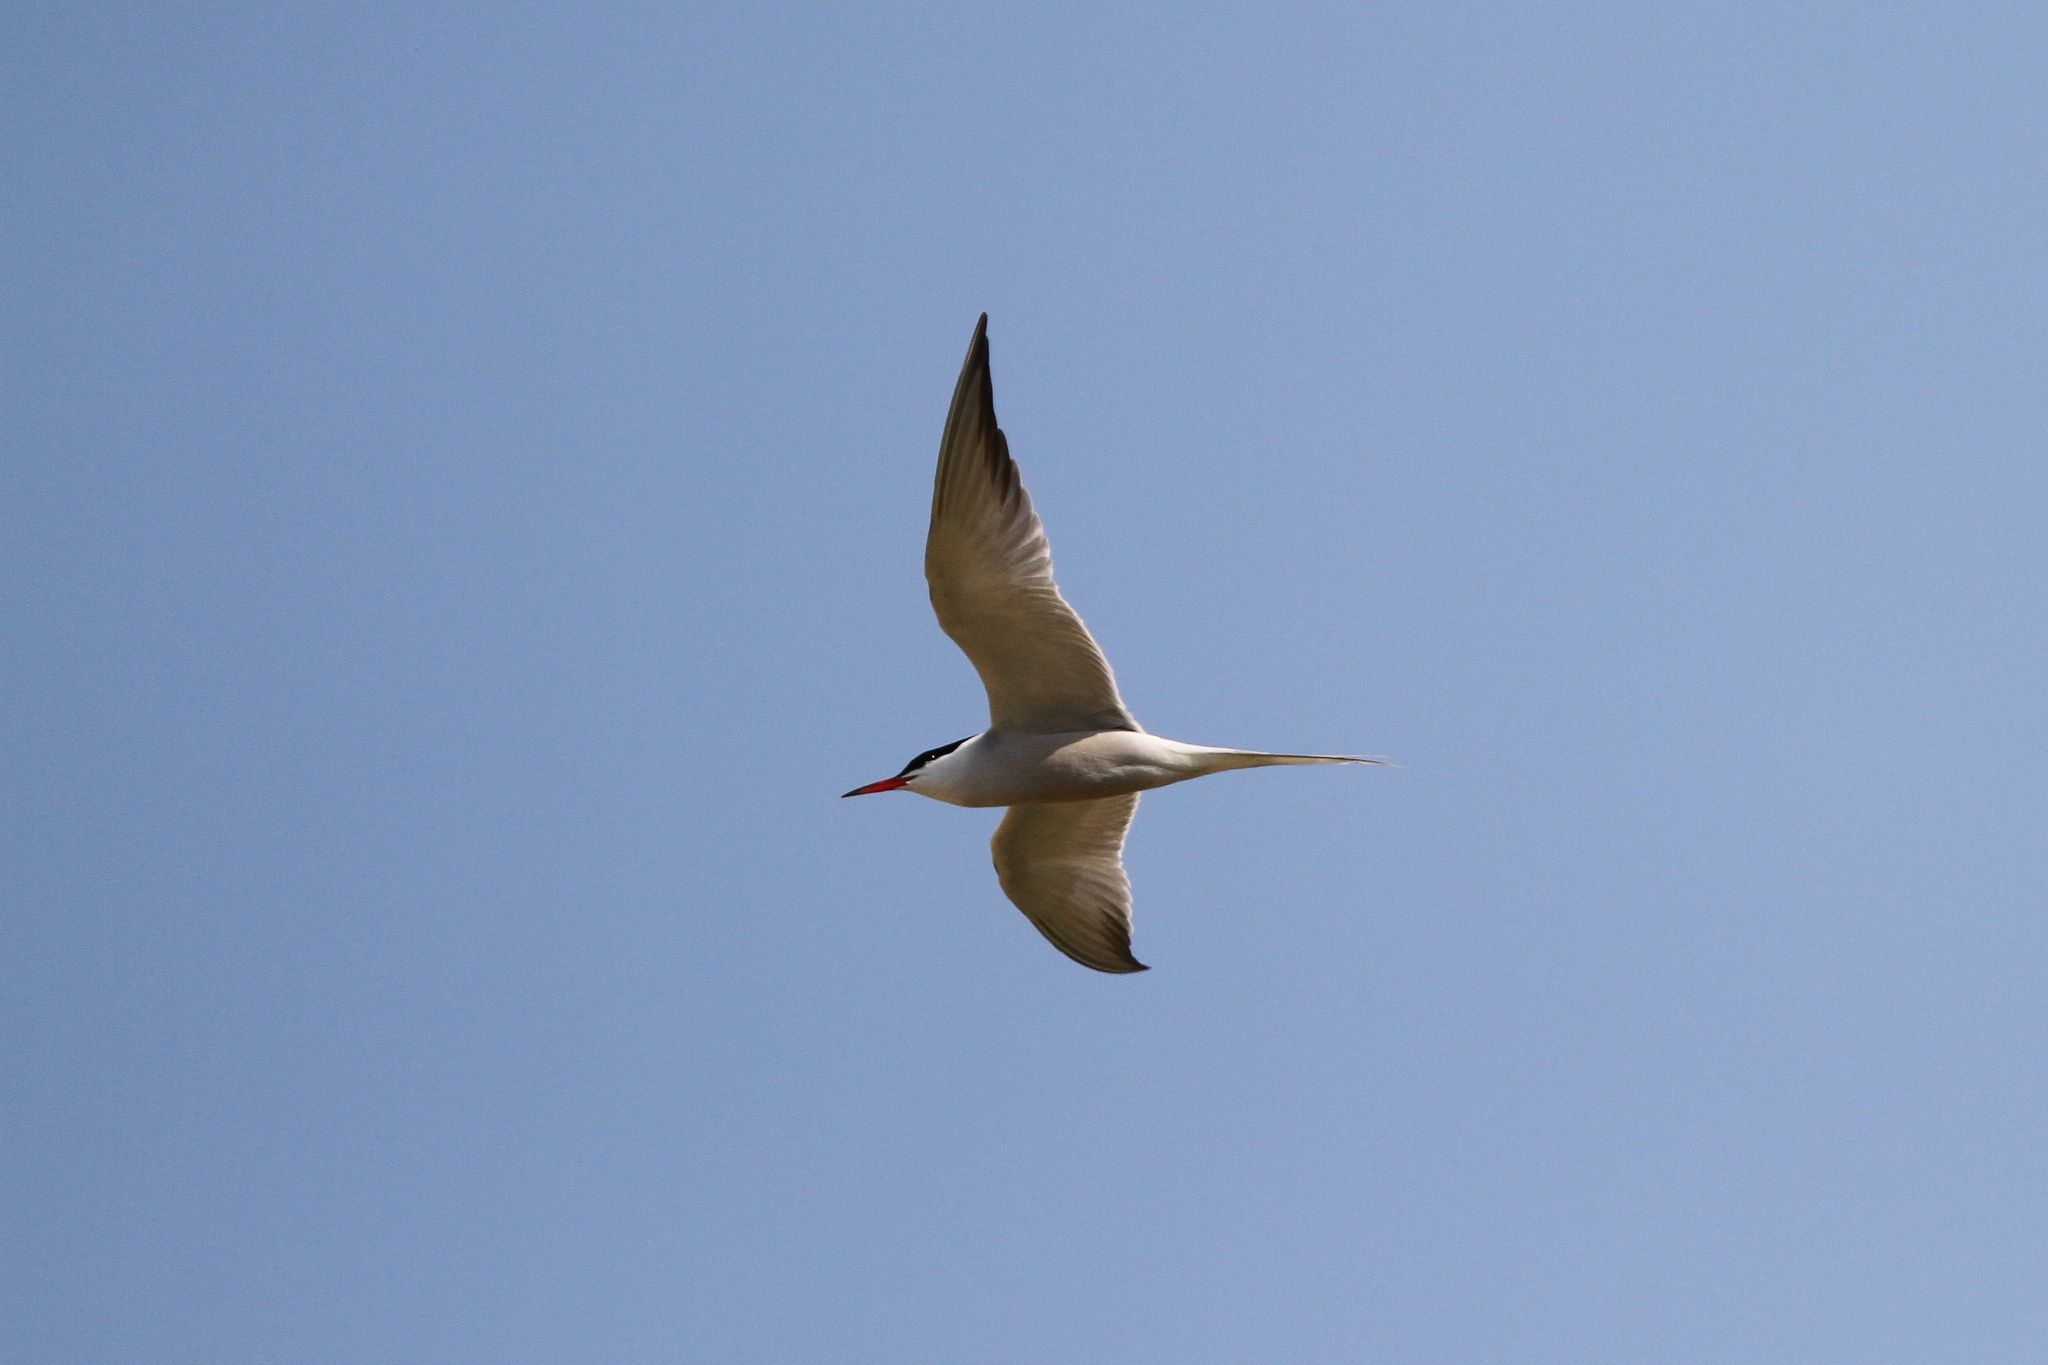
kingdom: Animalia
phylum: Chordata
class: Aves
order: Charadriiformes
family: Laridae
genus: Sterna
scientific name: Sterna hirundo
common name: Common tern
